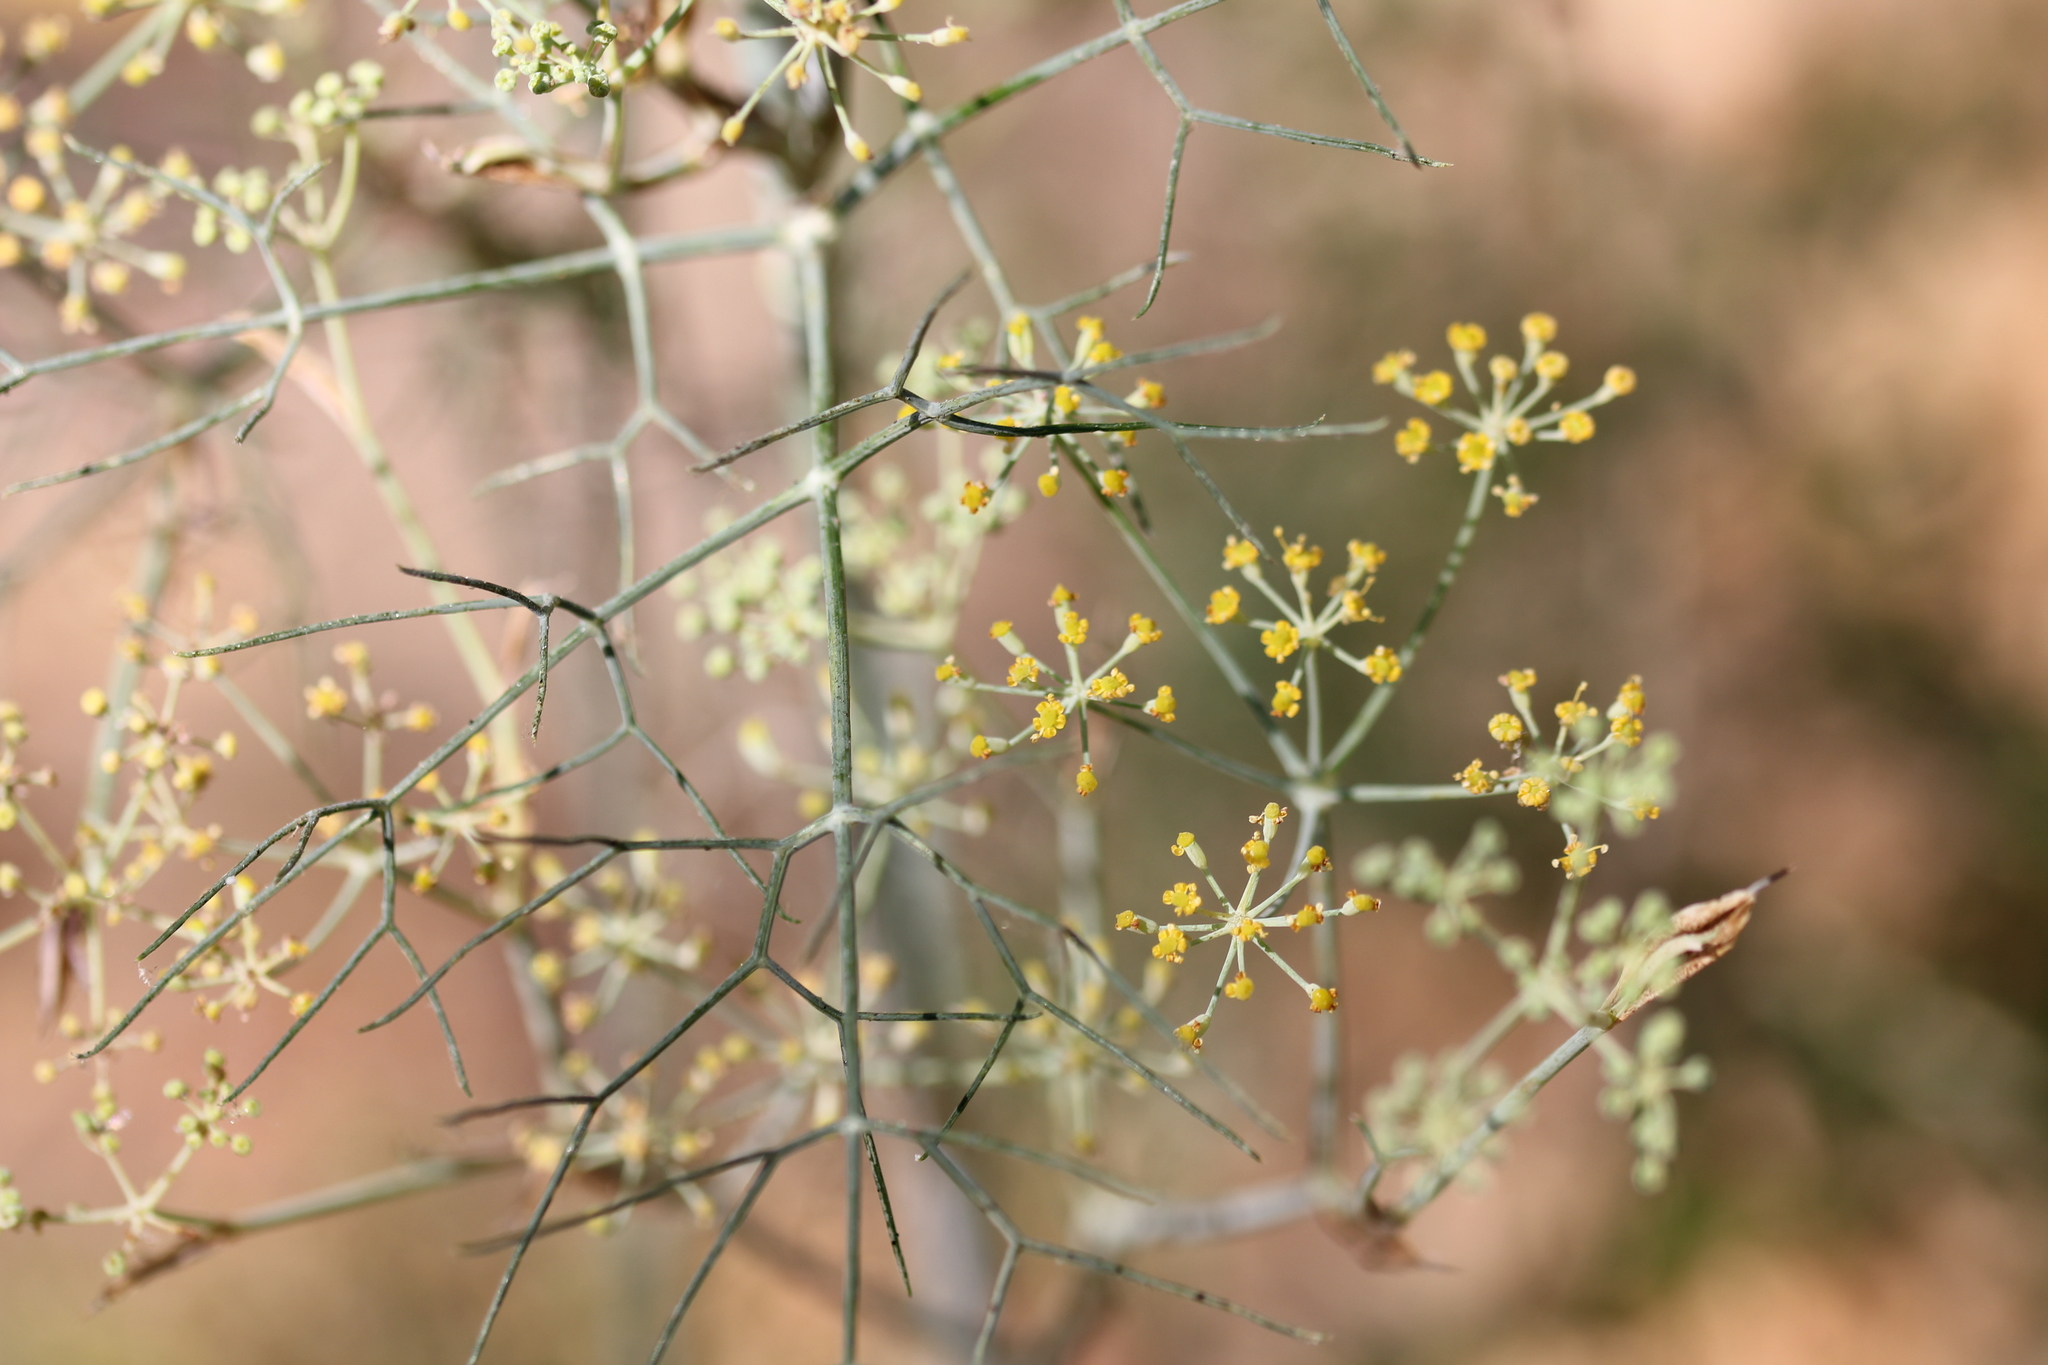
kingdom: Plantae
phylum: Tracheophyta
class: Magnoliopsida
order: Apiales
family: Apiaceae
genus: Foeniculum
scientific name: Foeniculum vulgare
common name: Fennel
